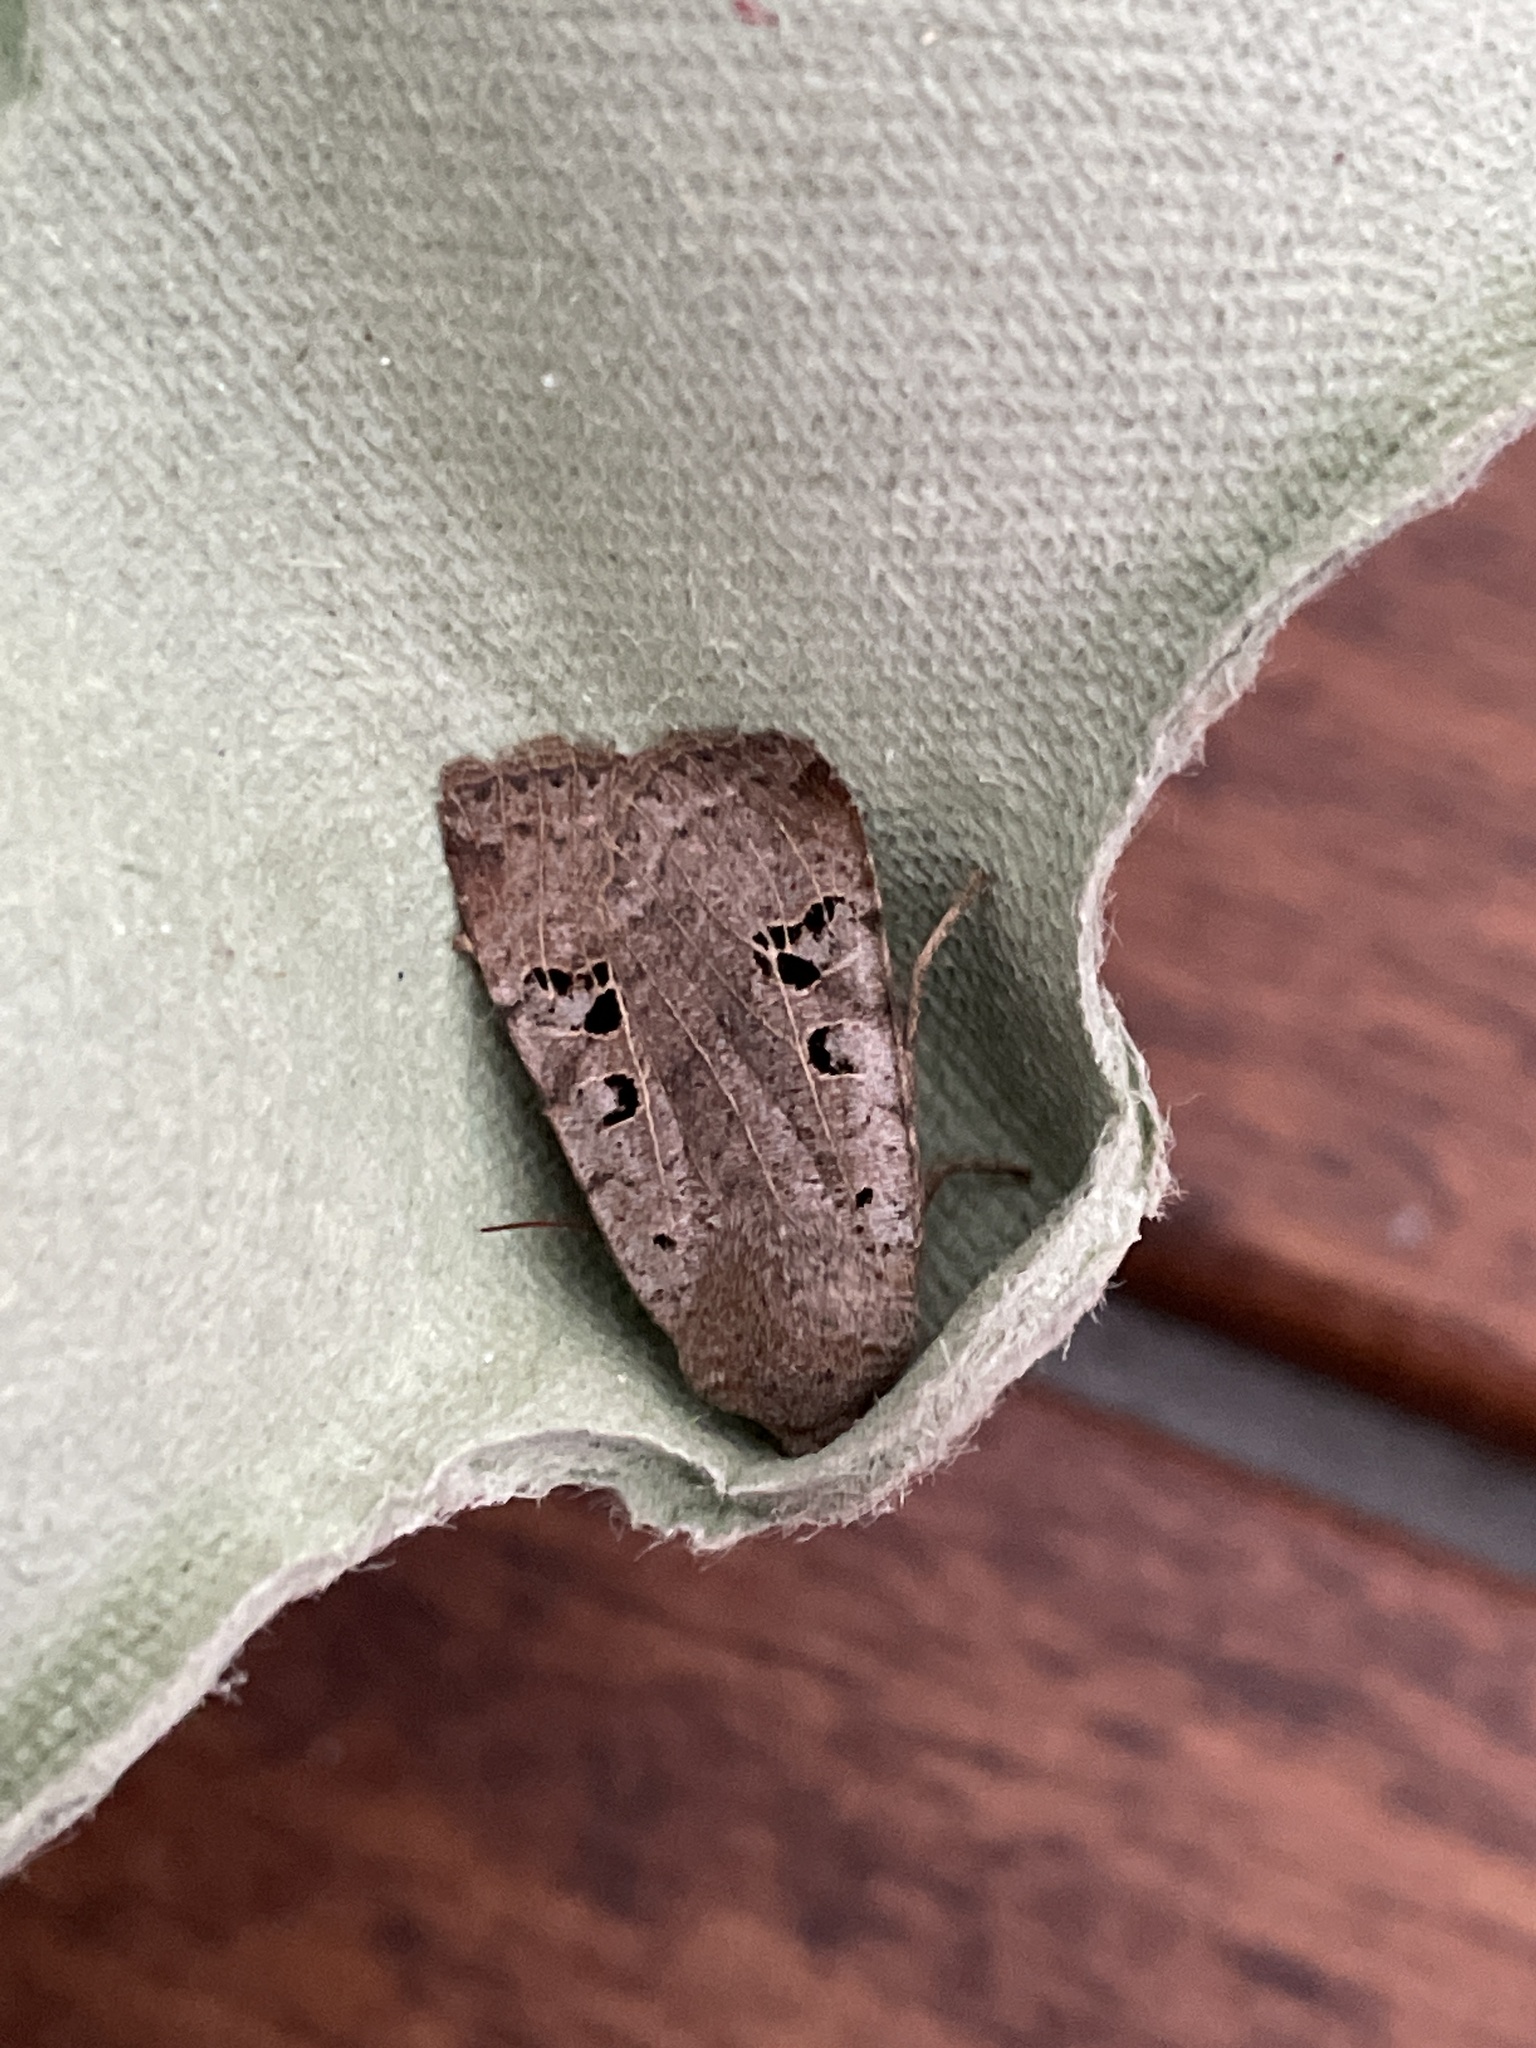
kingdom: Animalia
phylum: Arthropoda
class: Insecta
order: Lepidoptera
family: Noctuidae
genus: Conistra
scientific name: Conistra rubiginosa
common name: Black-spotted chestnut
